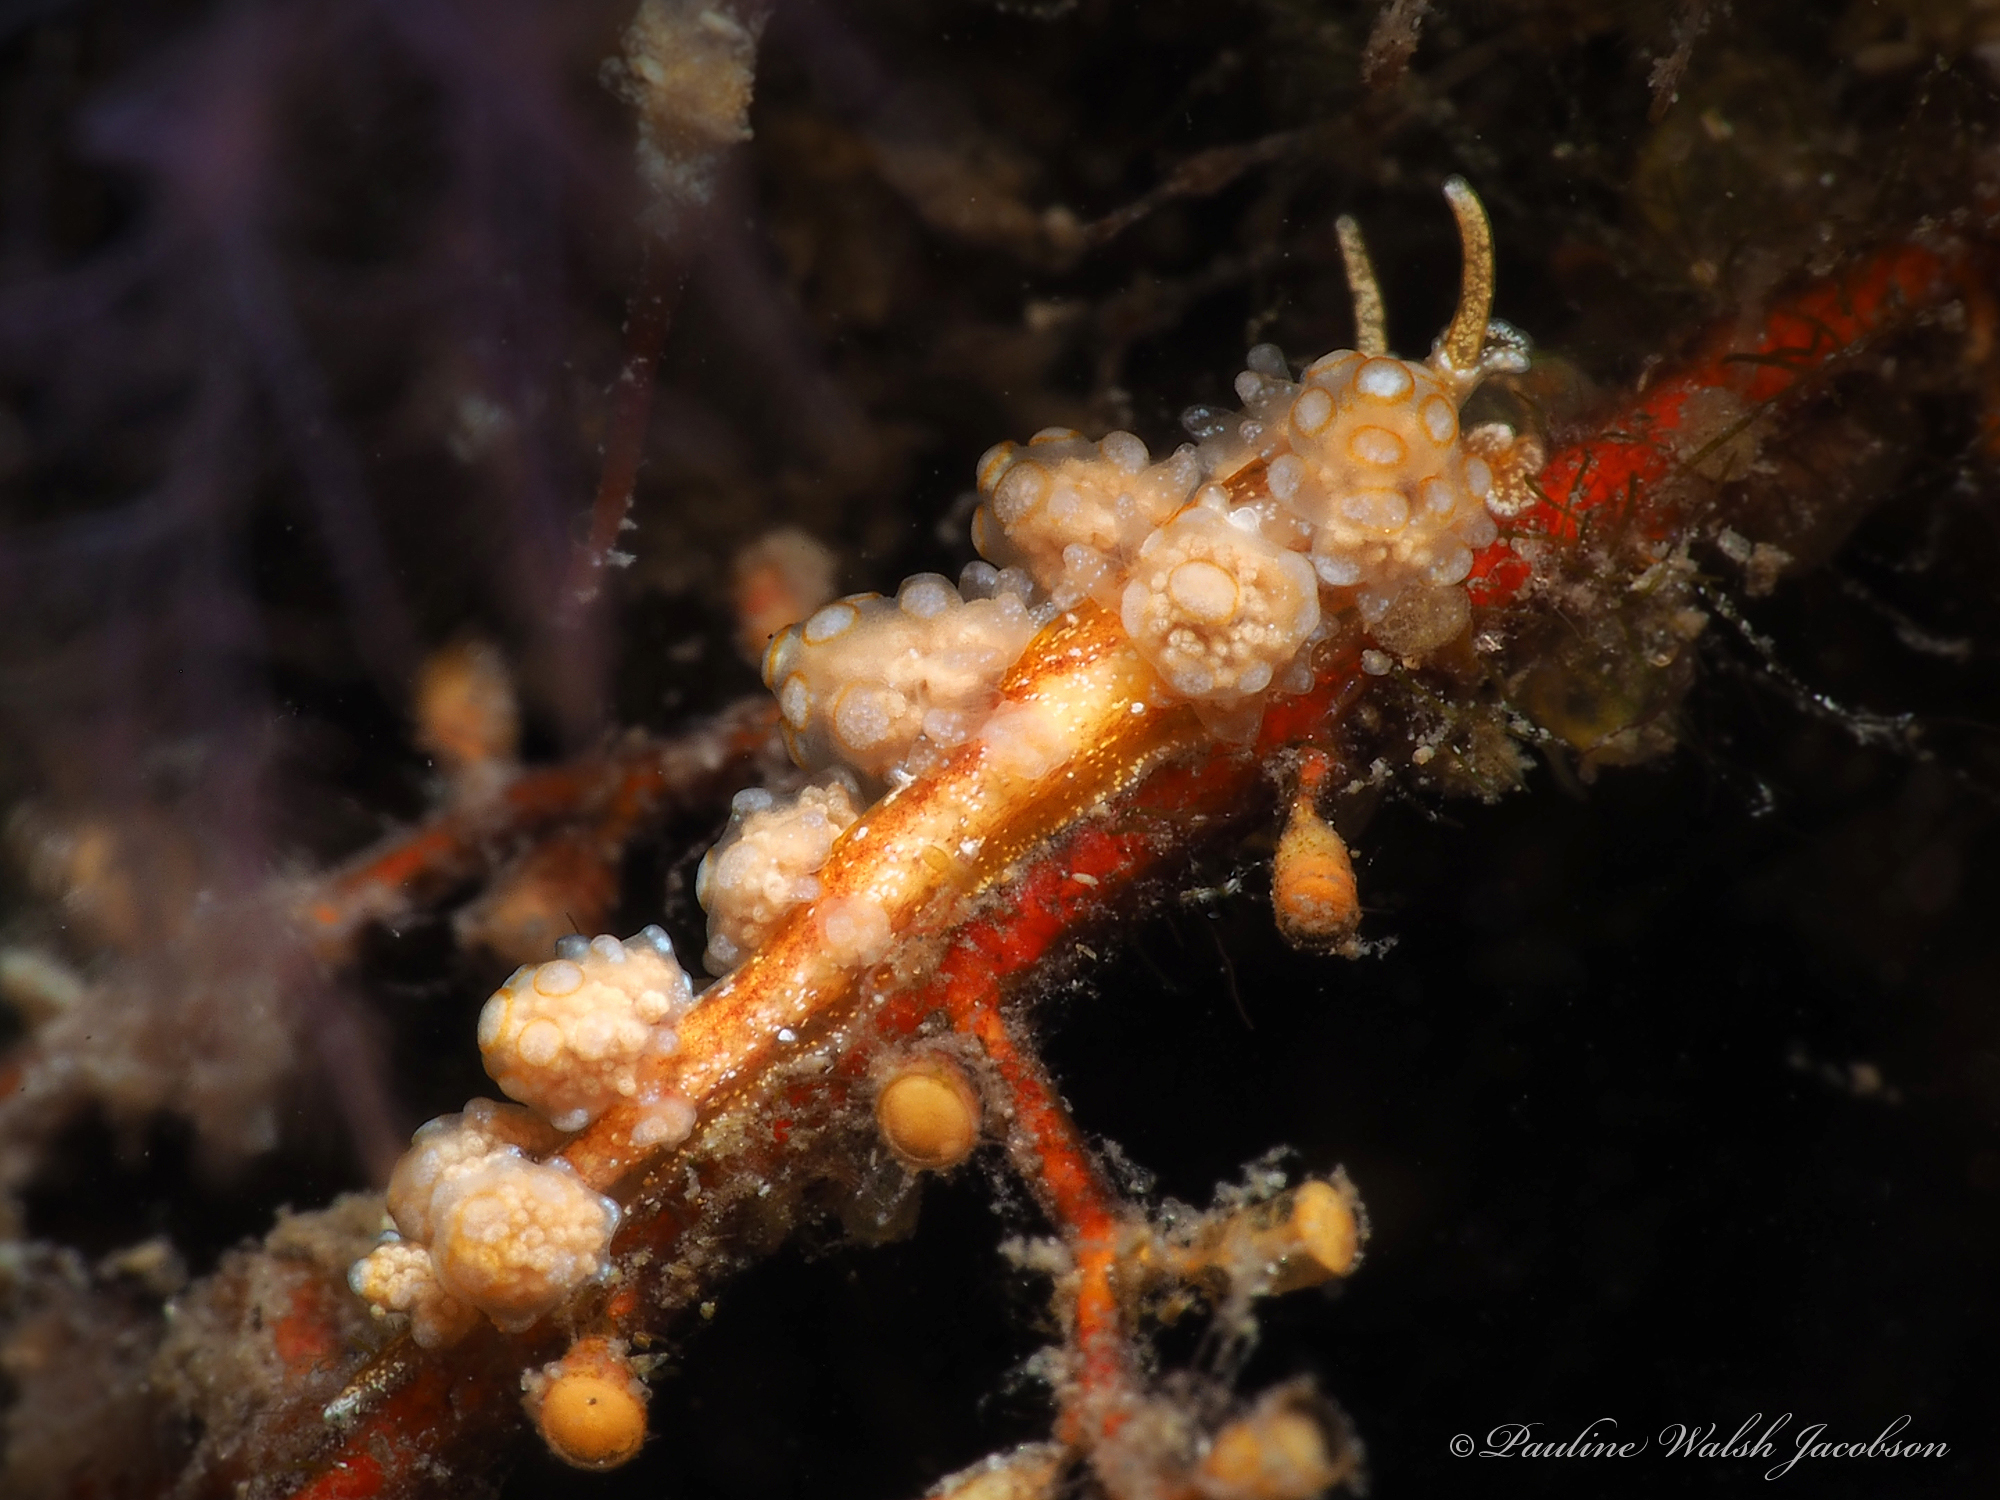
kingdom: Animalia
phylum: Mollusca
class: Gastropoda
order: Nudibranchia
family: Dotidae
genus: Doto
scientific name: Doto torrelavega
